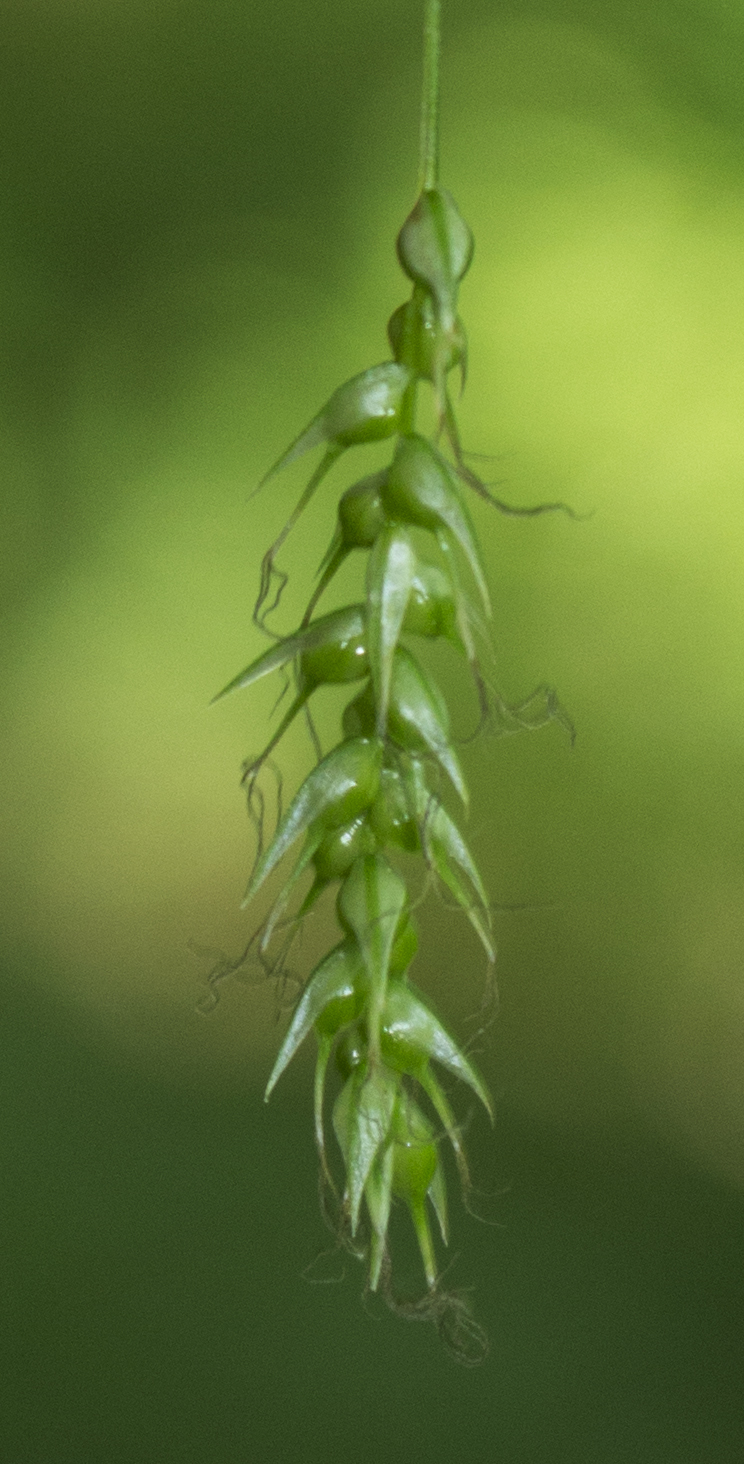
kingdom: Plantae
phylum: Tracheophyta
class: Liliopsida
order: Poales
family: Cyperaceae
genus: Carex
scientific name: Carex sprengelii
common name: Long-beaked sedge
